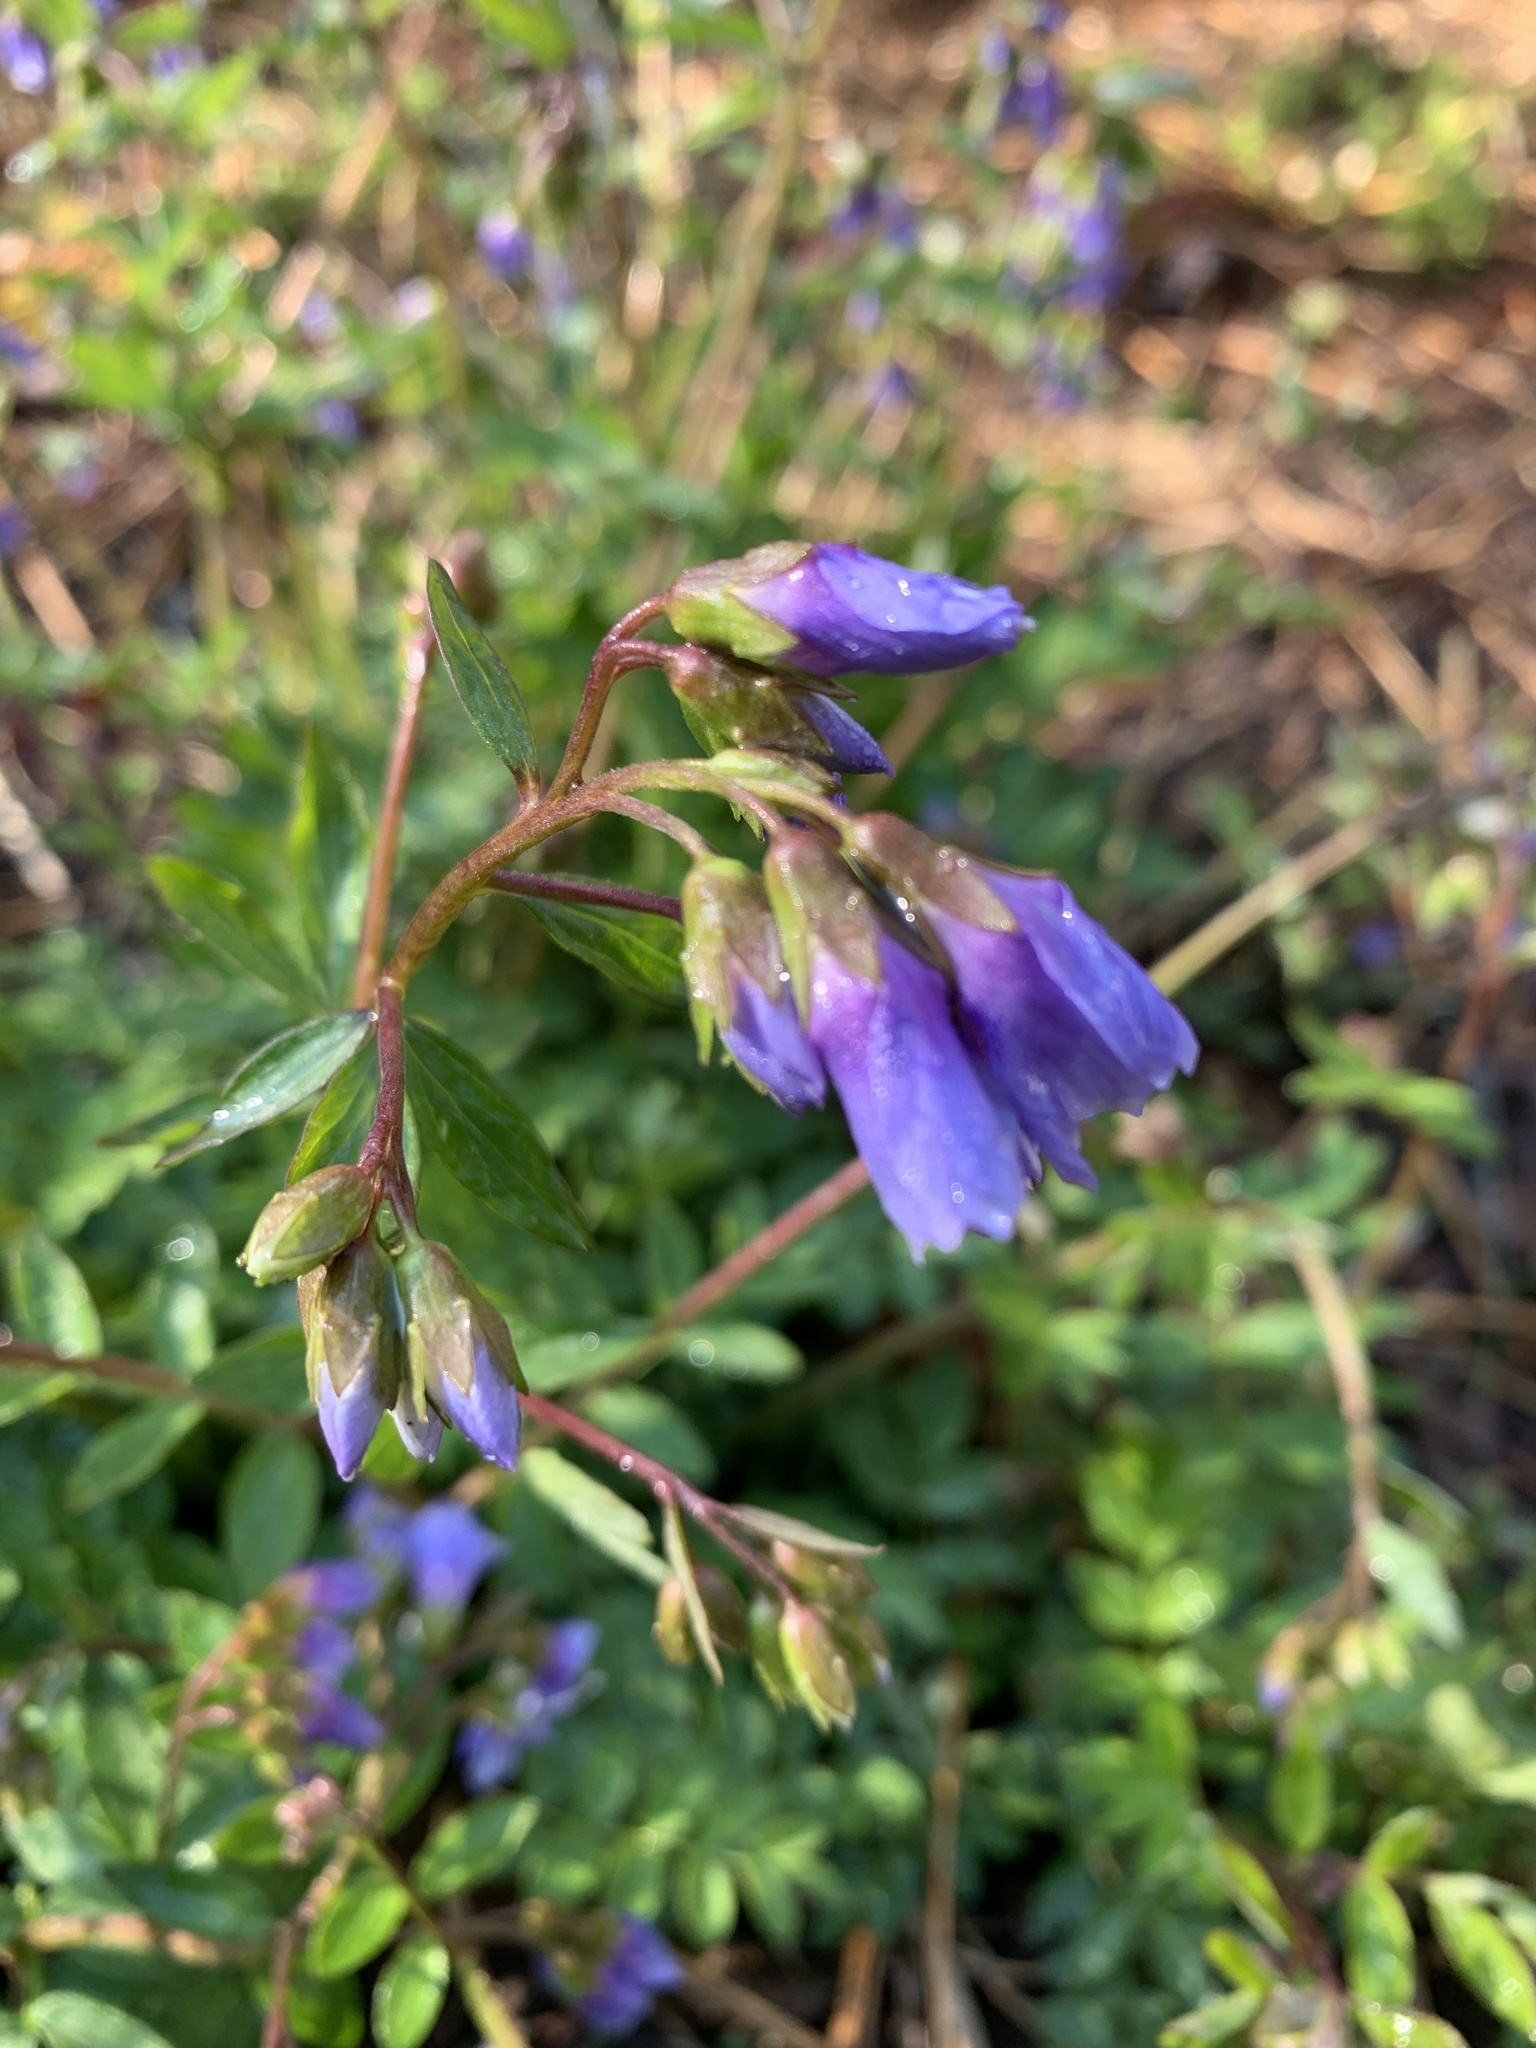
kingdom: Plantae
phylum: Tracheophyta
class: Magnoliopsida
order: Ericales
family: Polemoniaceae
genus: Polemonium
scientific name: Polemonium reptans
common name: Creeping jacob's-ladder
